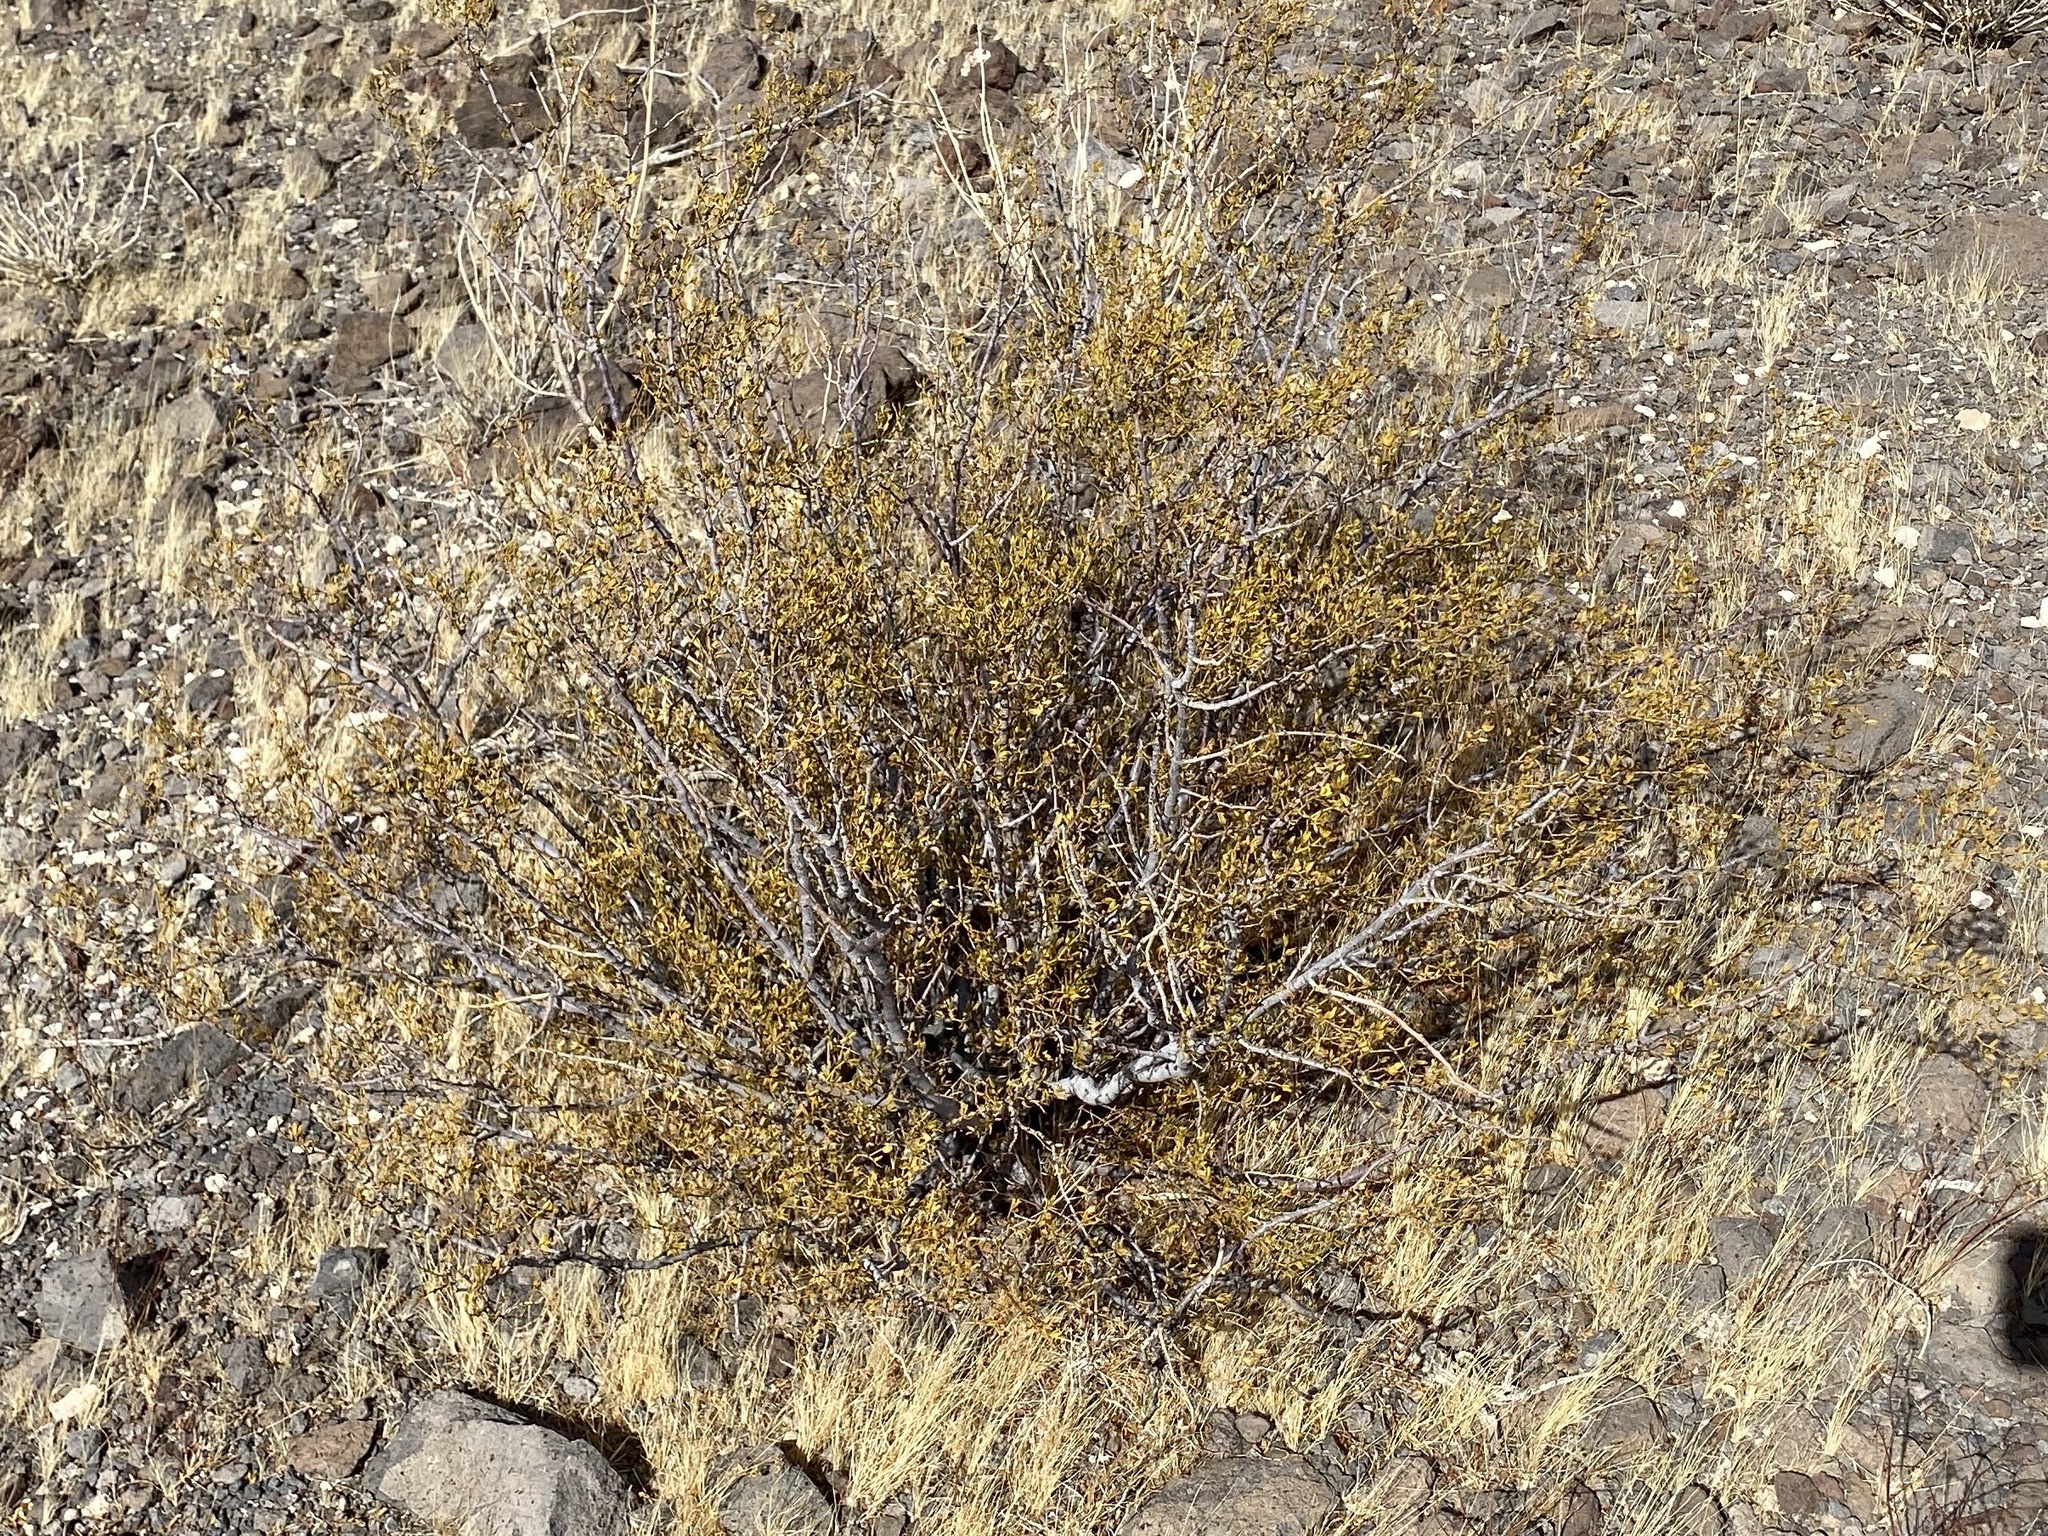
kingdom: Plantae
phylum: Tracheophyta
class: Magnoliopsida
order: Zygophyllales
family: Zygophyllaceae
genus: Larrea
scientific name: Larrea tridentata
